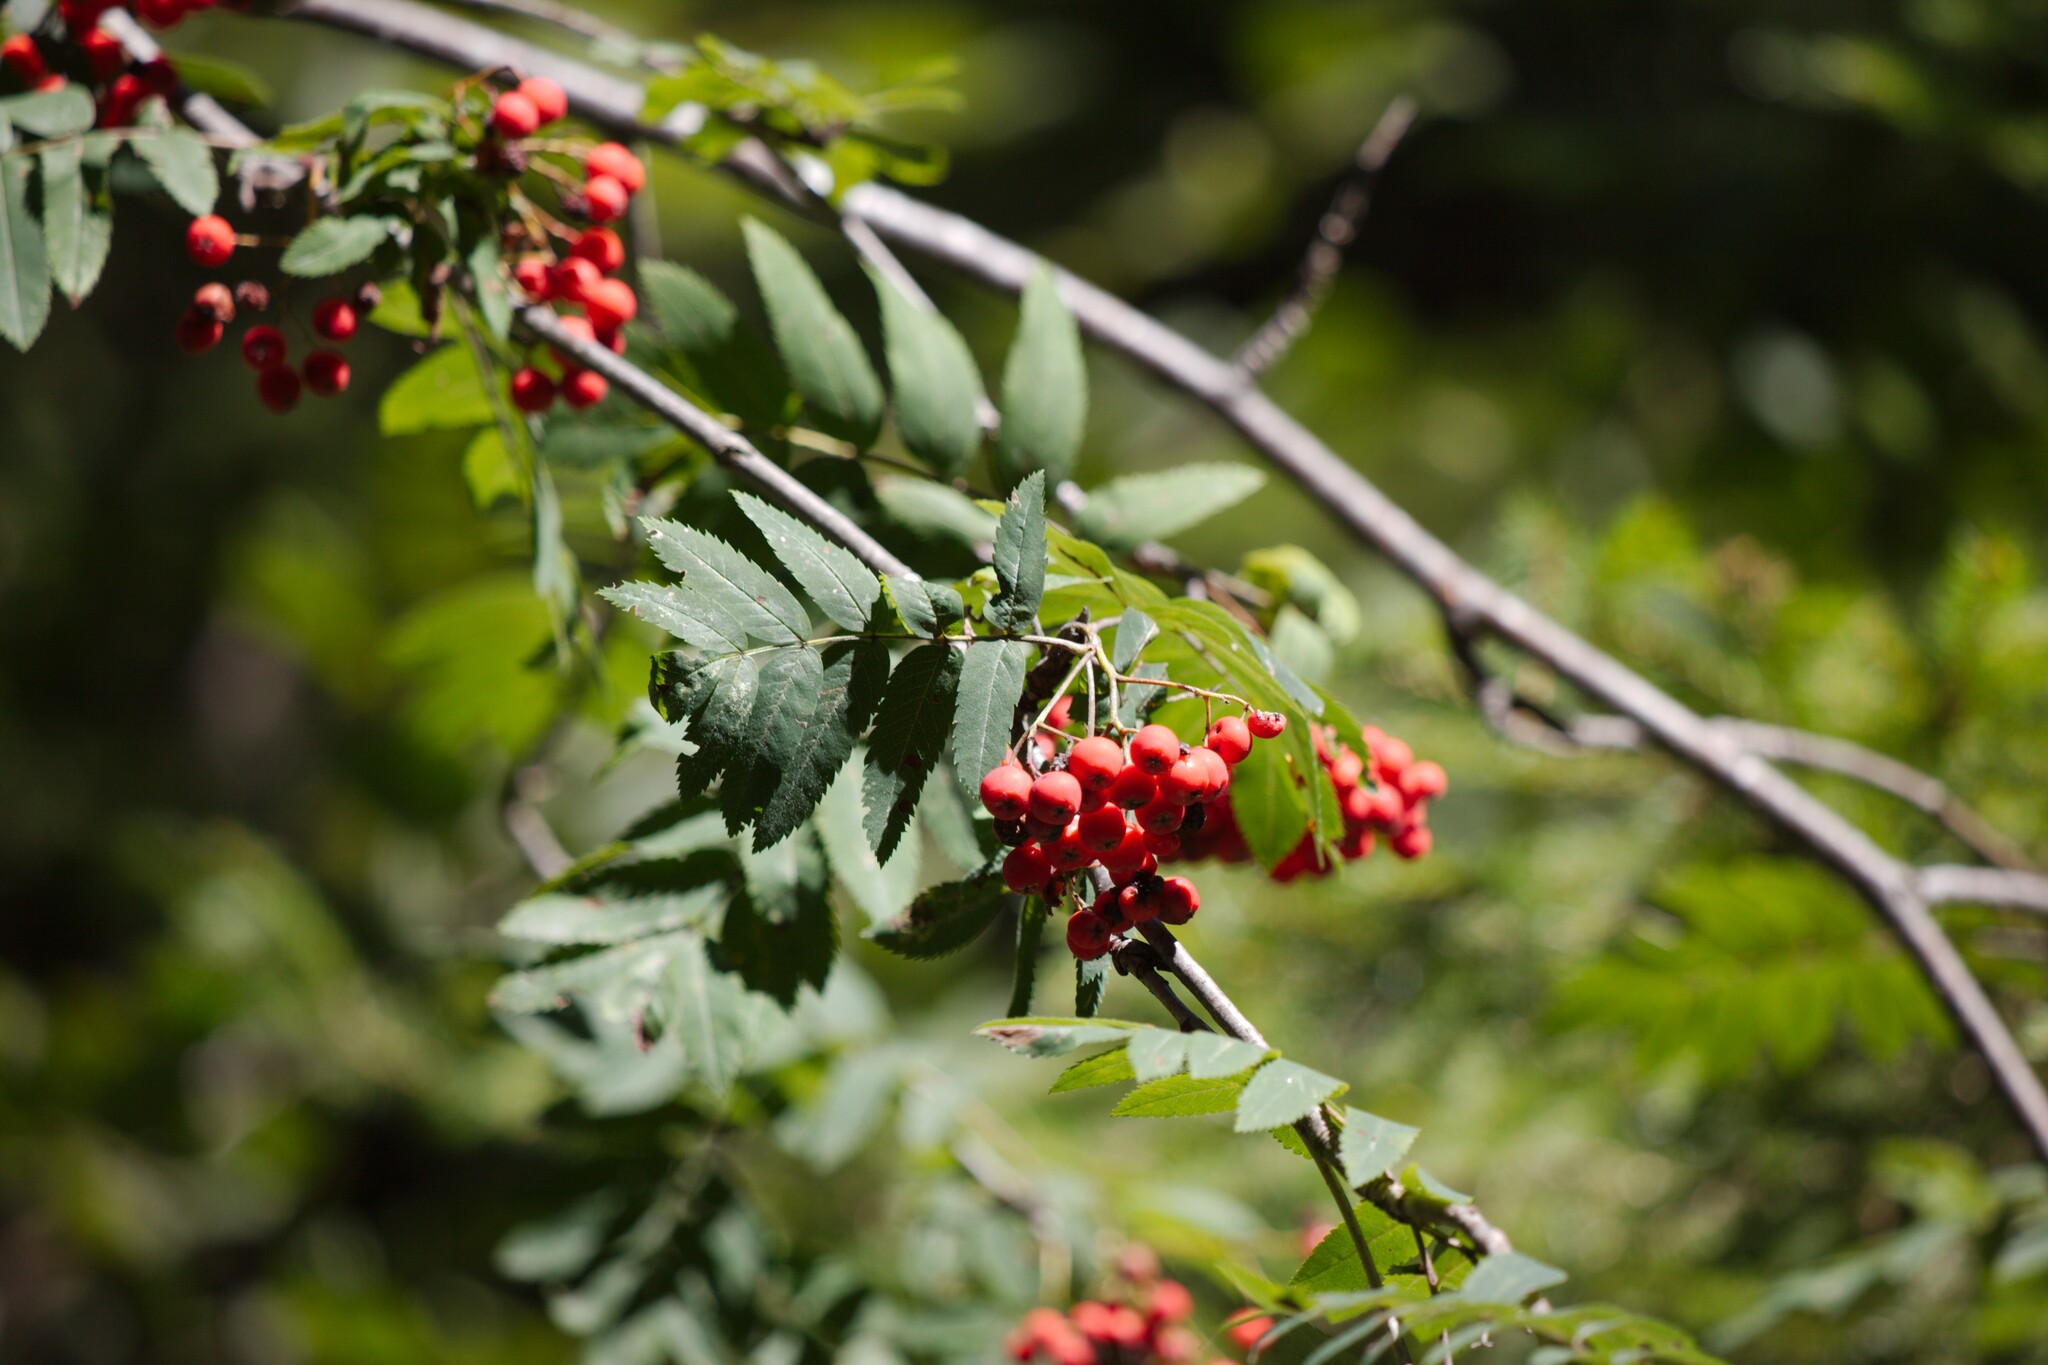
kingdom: Plantae
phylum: Tracheophyta
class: Magnoliopsida
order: Rosales
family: Rosaceae
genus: Sorbus
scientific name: Sorbus aucuparia
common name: Rowan
